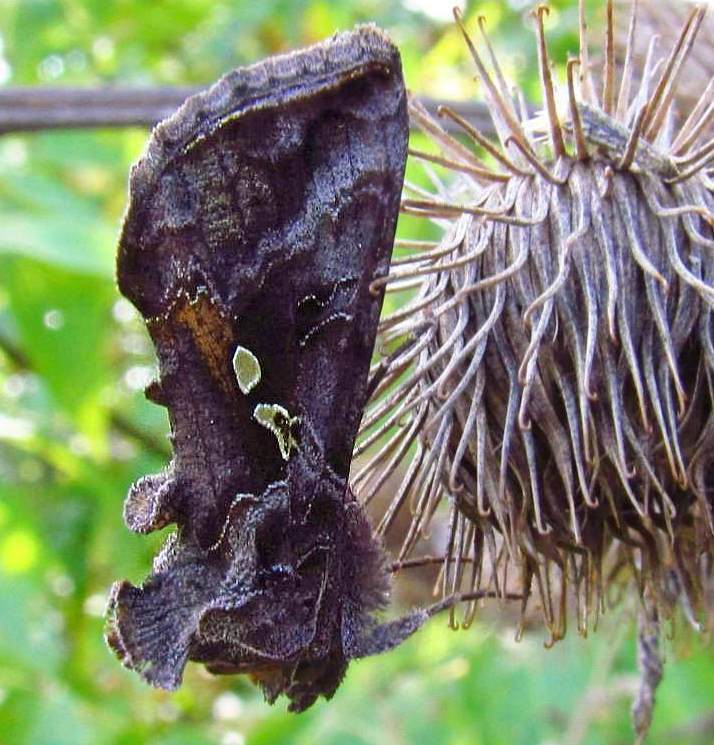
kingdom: Animalia
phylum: Arthropoda
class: Insecta
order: Lepidoptera
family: Noctuidae
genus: Autographa
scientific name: Autographa precationis
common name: Common looper moth
